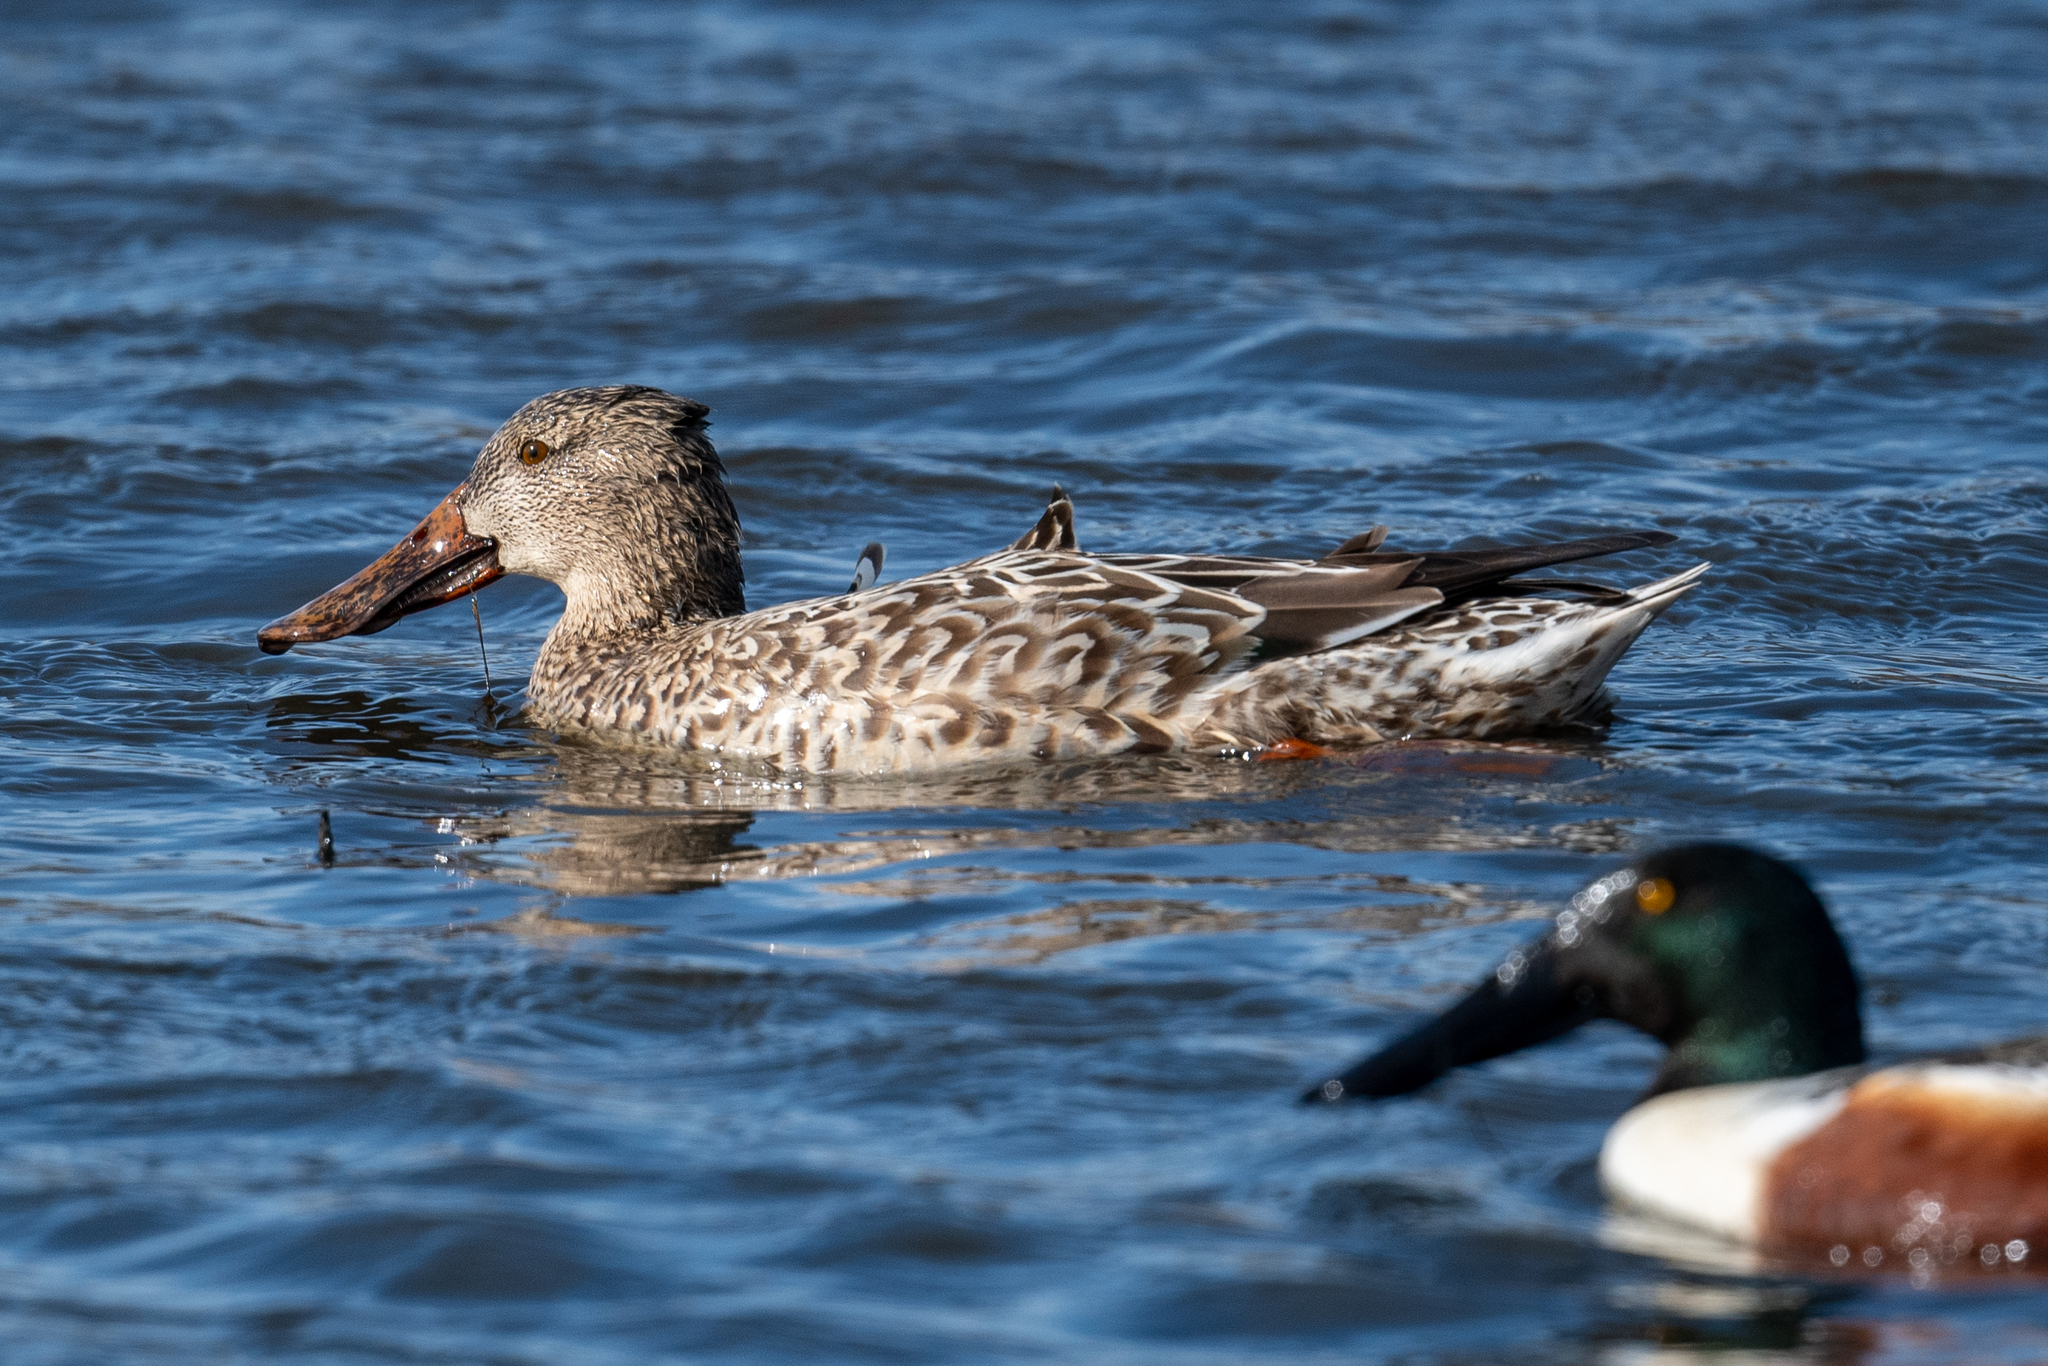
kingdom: Animalia
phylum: Chordata
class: Aves
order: Anseriformes
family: Anatidae
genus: Spatula
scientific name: Spatula clypeata
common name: Northern shoveler
